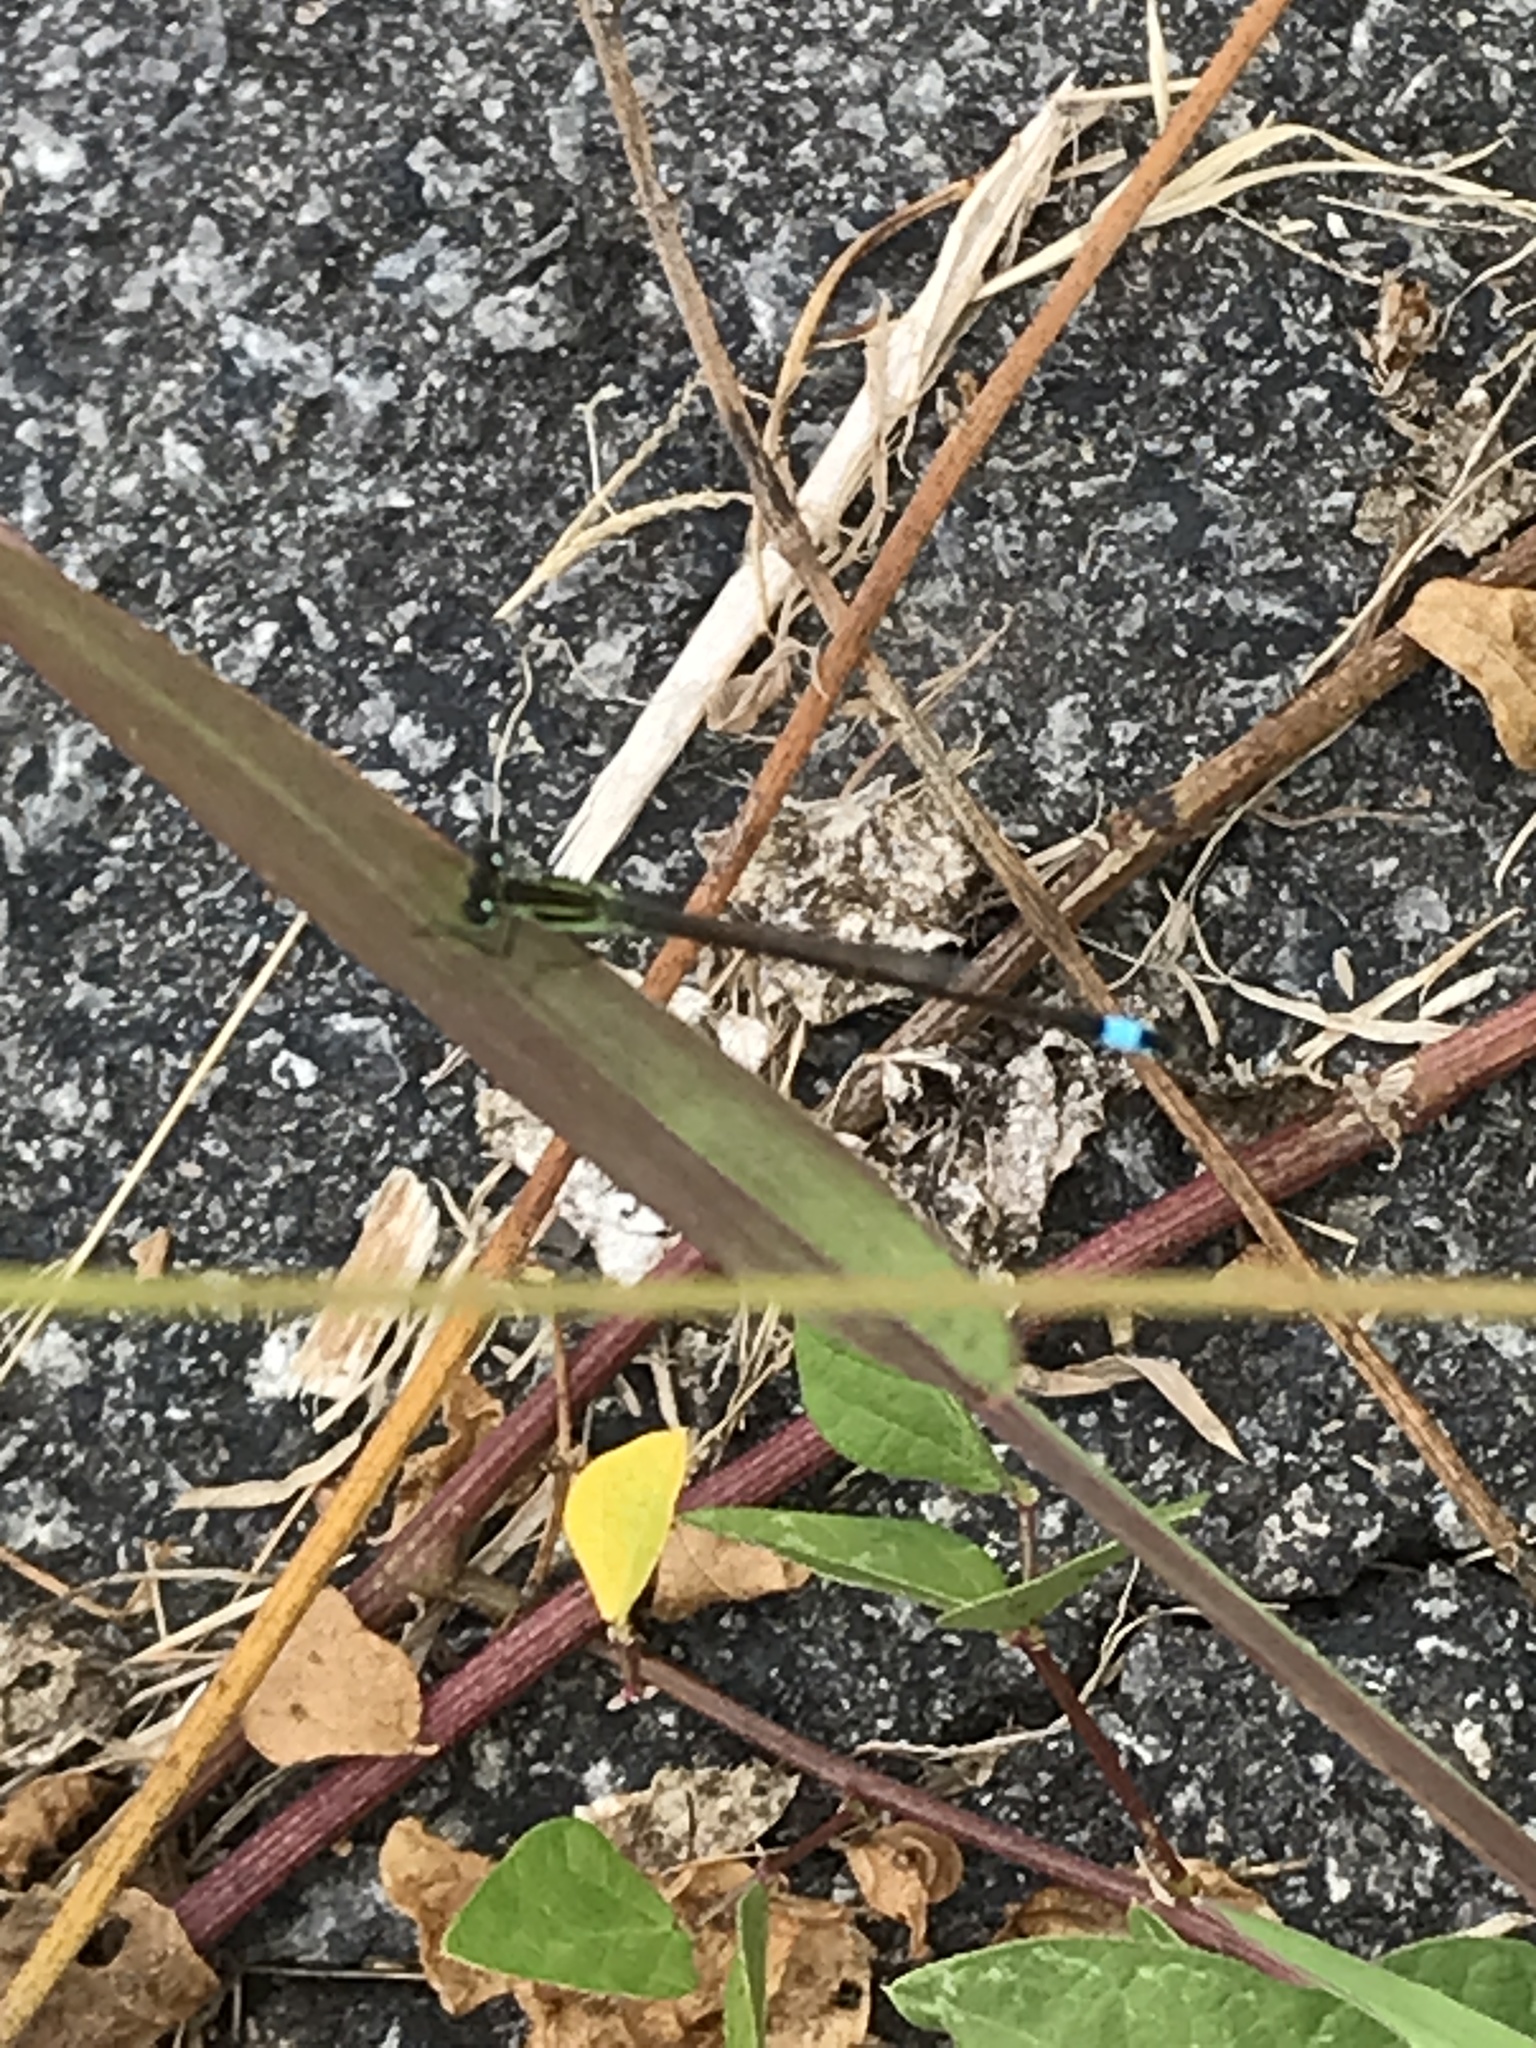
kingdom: Animalia
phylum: Arthropoda
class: Insecta
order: Odonata
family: Coenagrionidae
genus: Ischnura
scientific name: Ischnura ramburii
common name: Rambur's forktail
